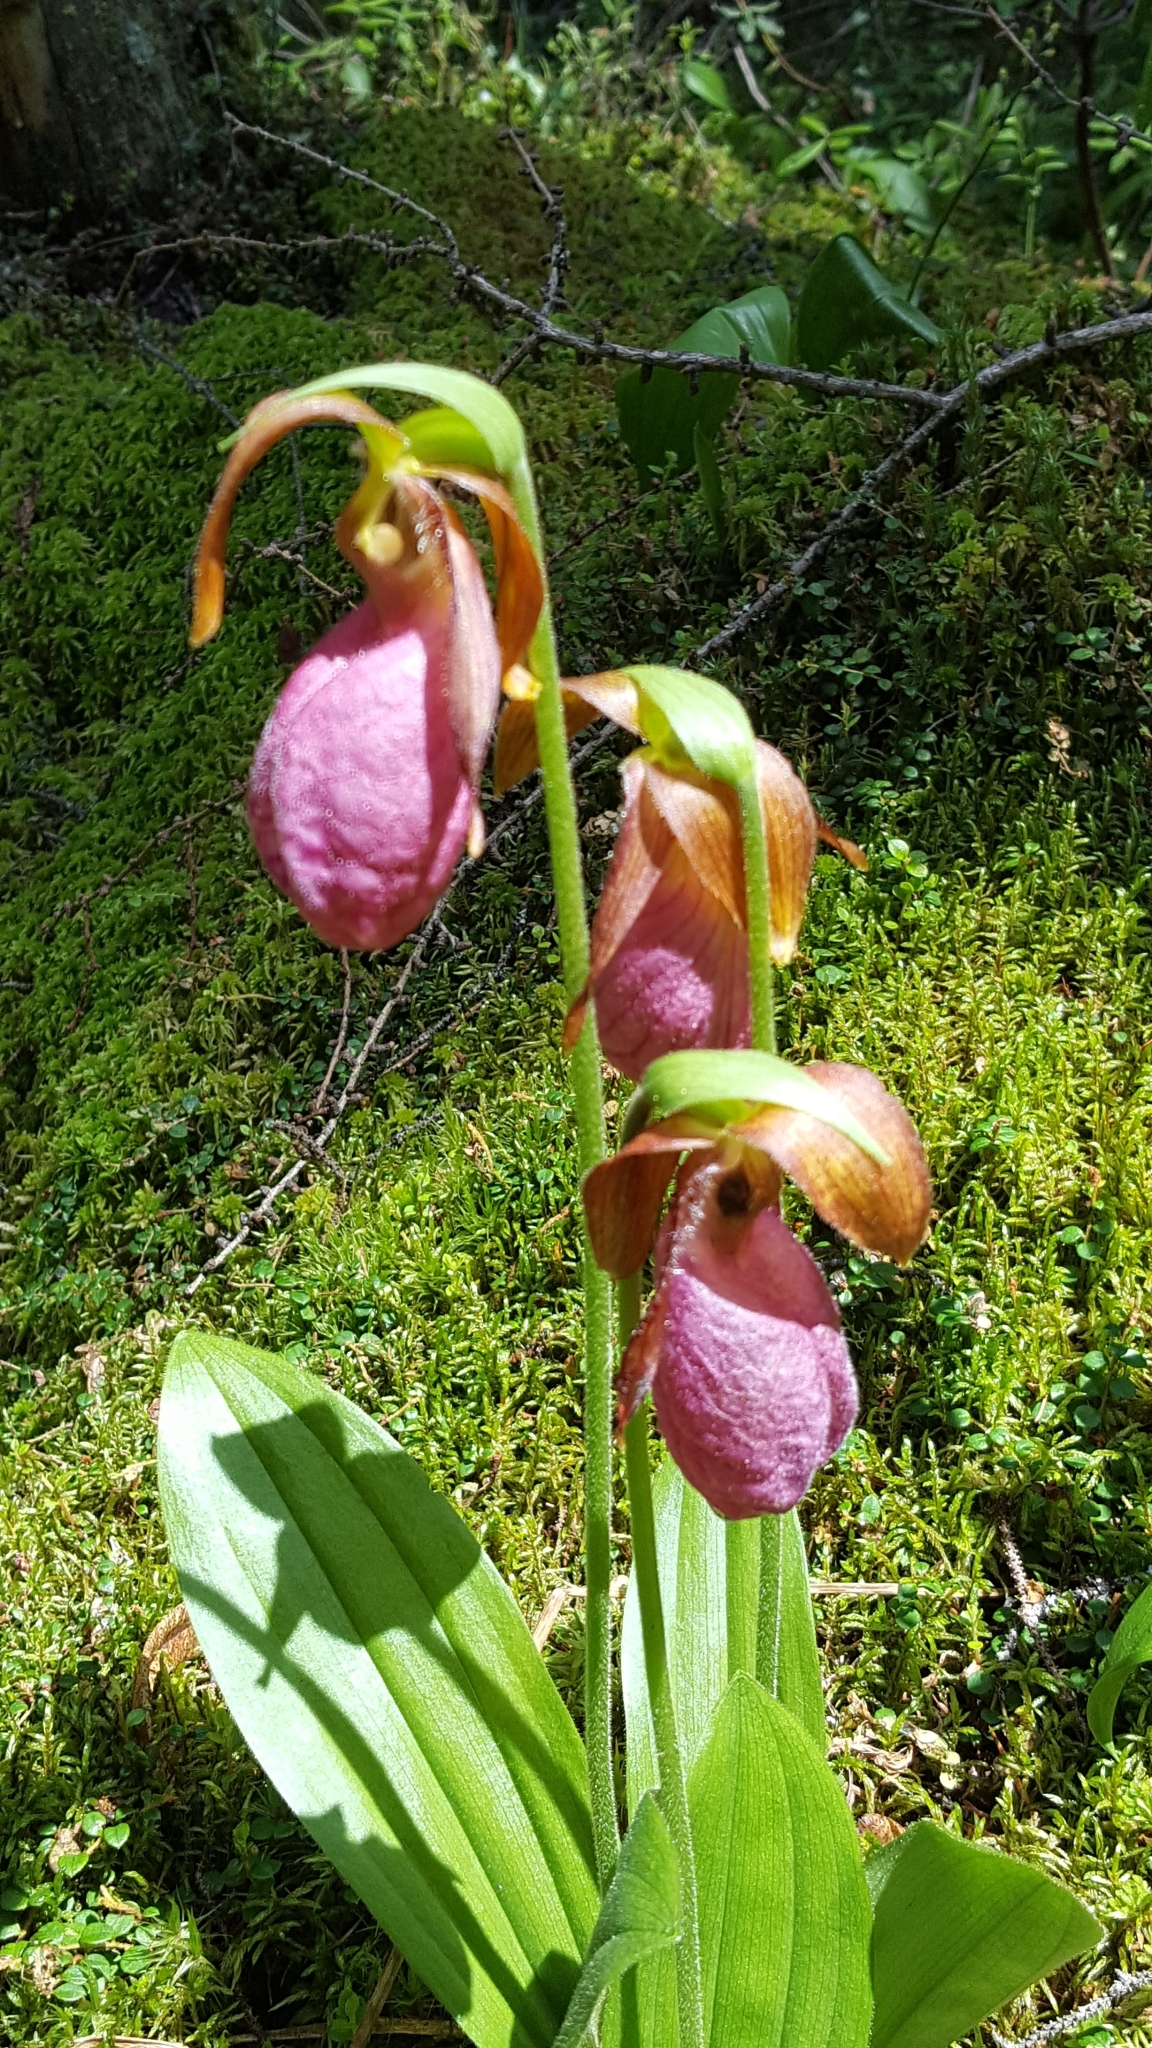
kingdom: Plantae
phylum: Tracheophyta
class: Liliopsida
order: Asparagales
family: Orchidaceae
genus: Cypripedium
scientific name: Cypripedium acaule
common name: Pink lady's-slipper
